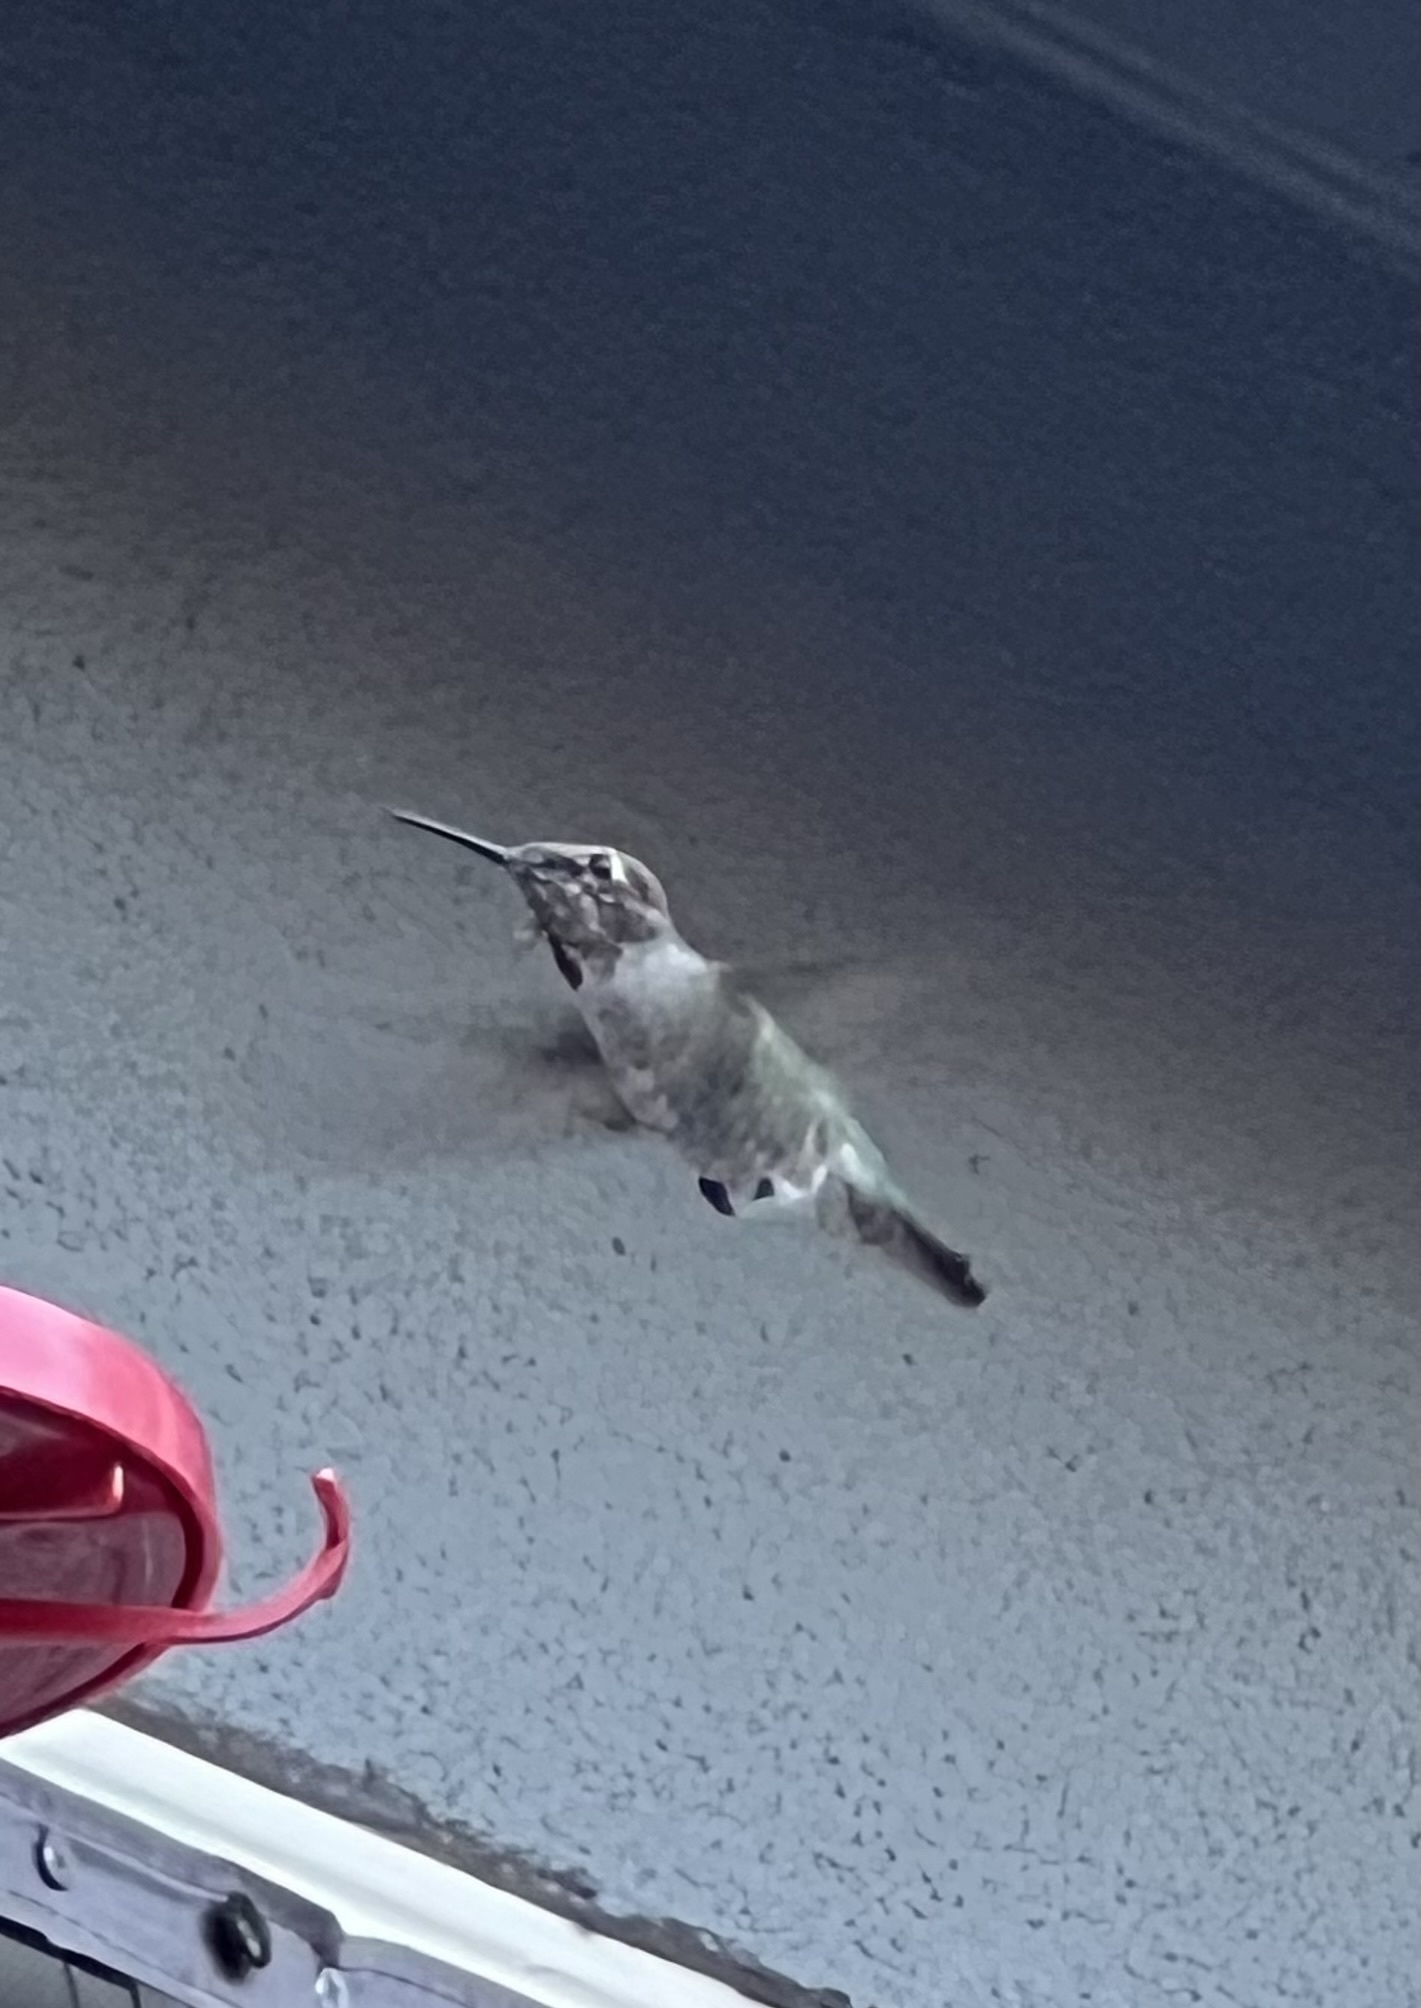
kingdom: Animalia
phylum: Chordata
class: Aves
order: Apodiformes
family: Trochilidae
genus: Calypte
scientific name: Calypte anna
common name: Anna's hummingbird
